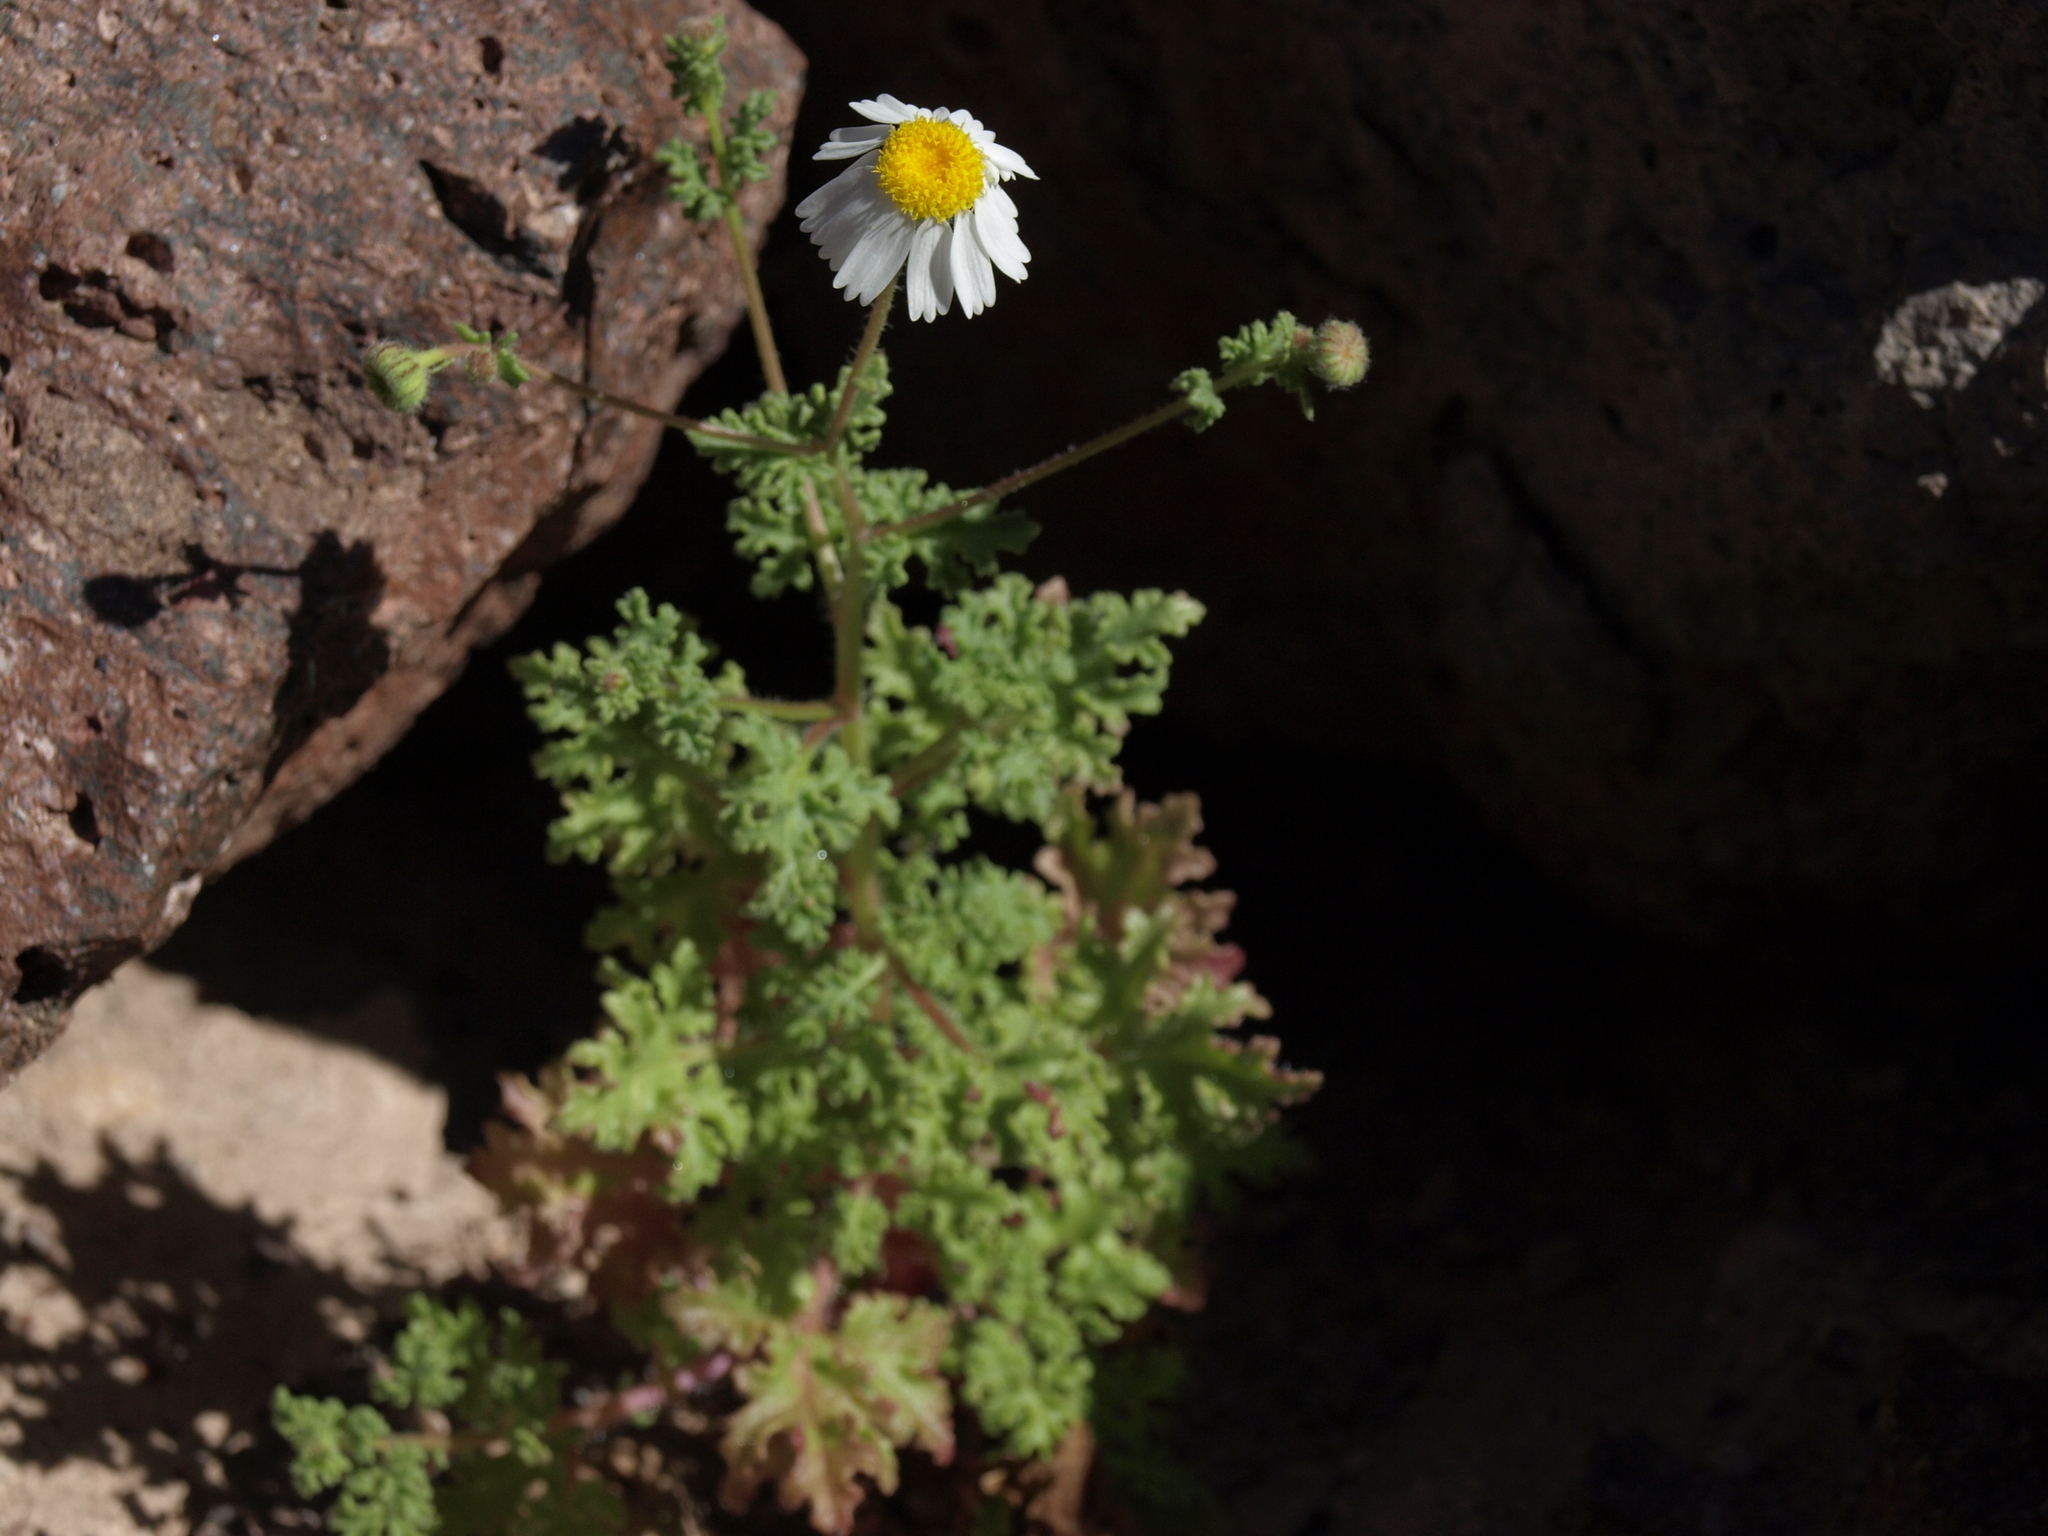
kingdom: Plantae
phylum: Tracheophyta
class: Magnoliopsida
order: Asterales
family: Asteraceae
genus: Perityle
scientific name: Perityle crassifolia
